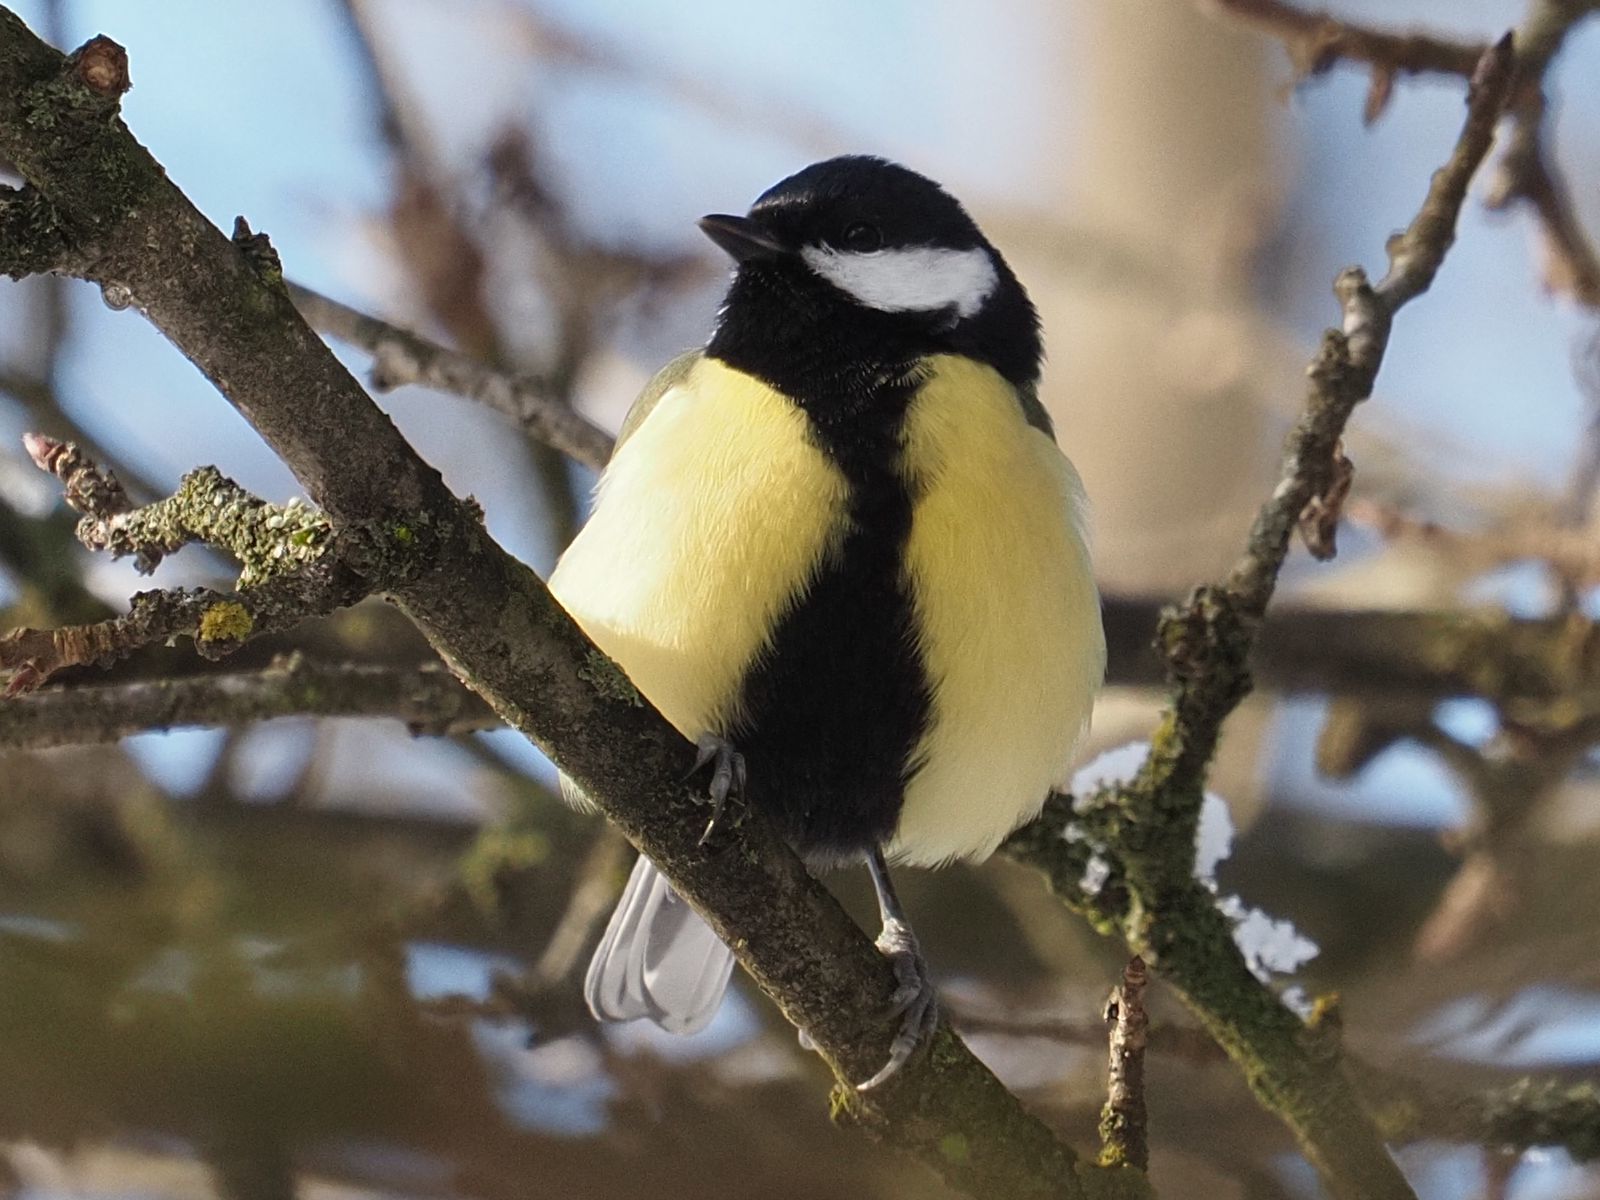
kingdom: Animalia
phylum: Chordata
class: Aves
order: Passeriformes
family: Paridae
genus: Parus
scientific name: Parus major
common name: Great tit
